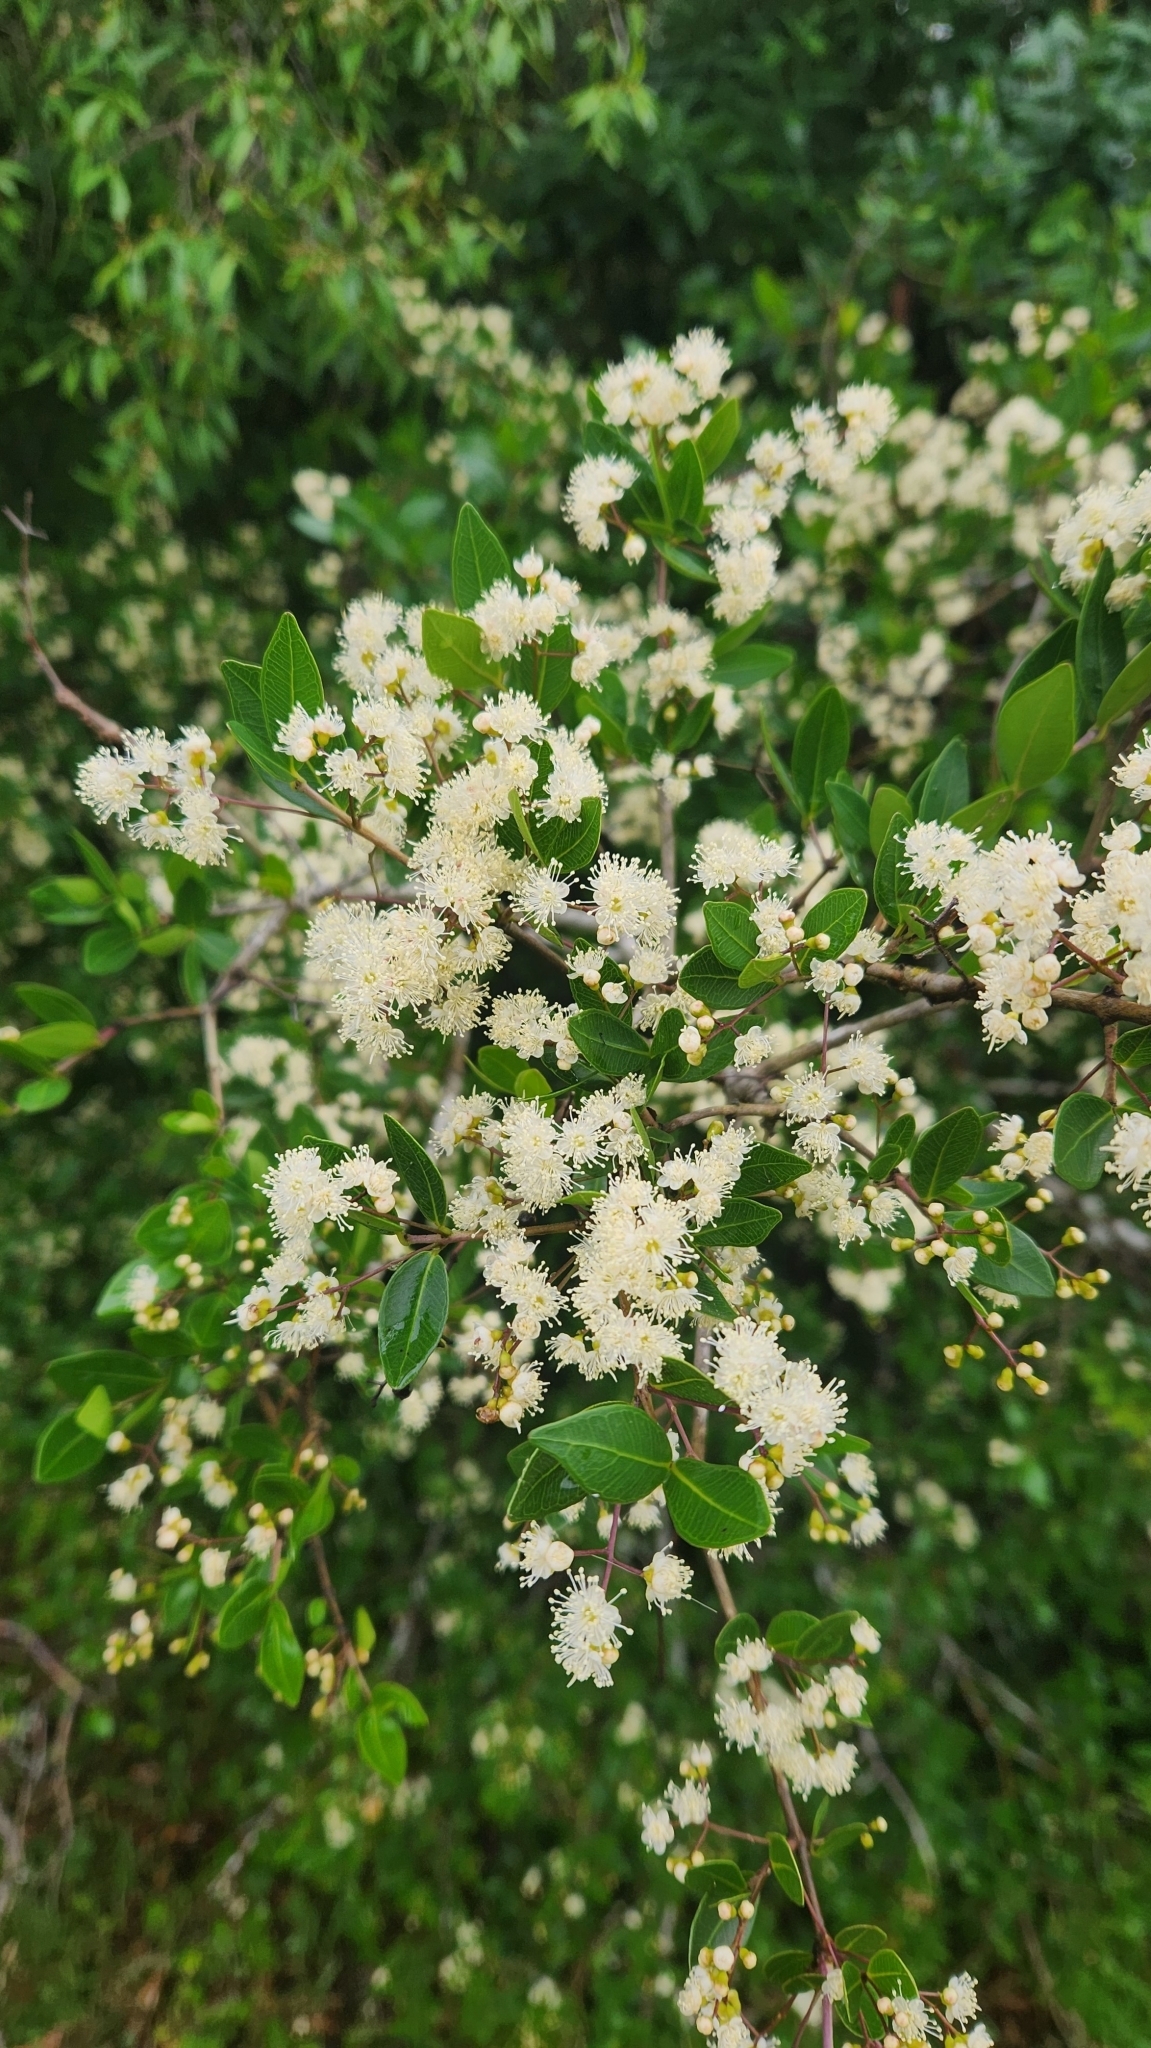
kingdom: Plantae
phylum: Tracheophyta
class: Magnoliopsida
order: Myrtales
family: Myrtaceae
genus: Myrcia
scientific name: Myrcia selloi
